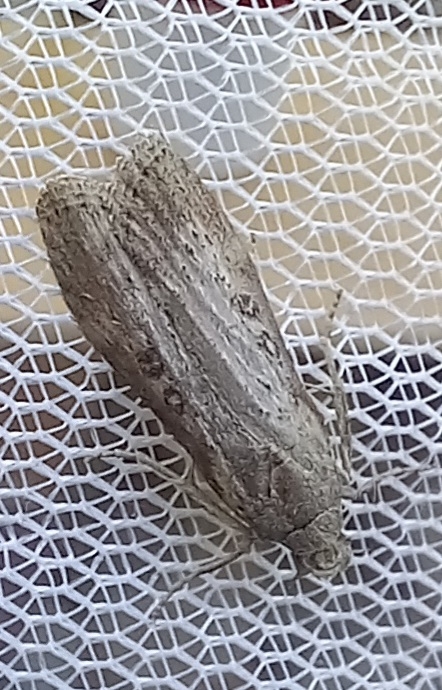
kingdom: Animalia
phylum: Arthropoda
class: Insecta
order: Lepidoptera
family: Pyralidae
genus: Lamoria
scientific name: Lamoria anella
